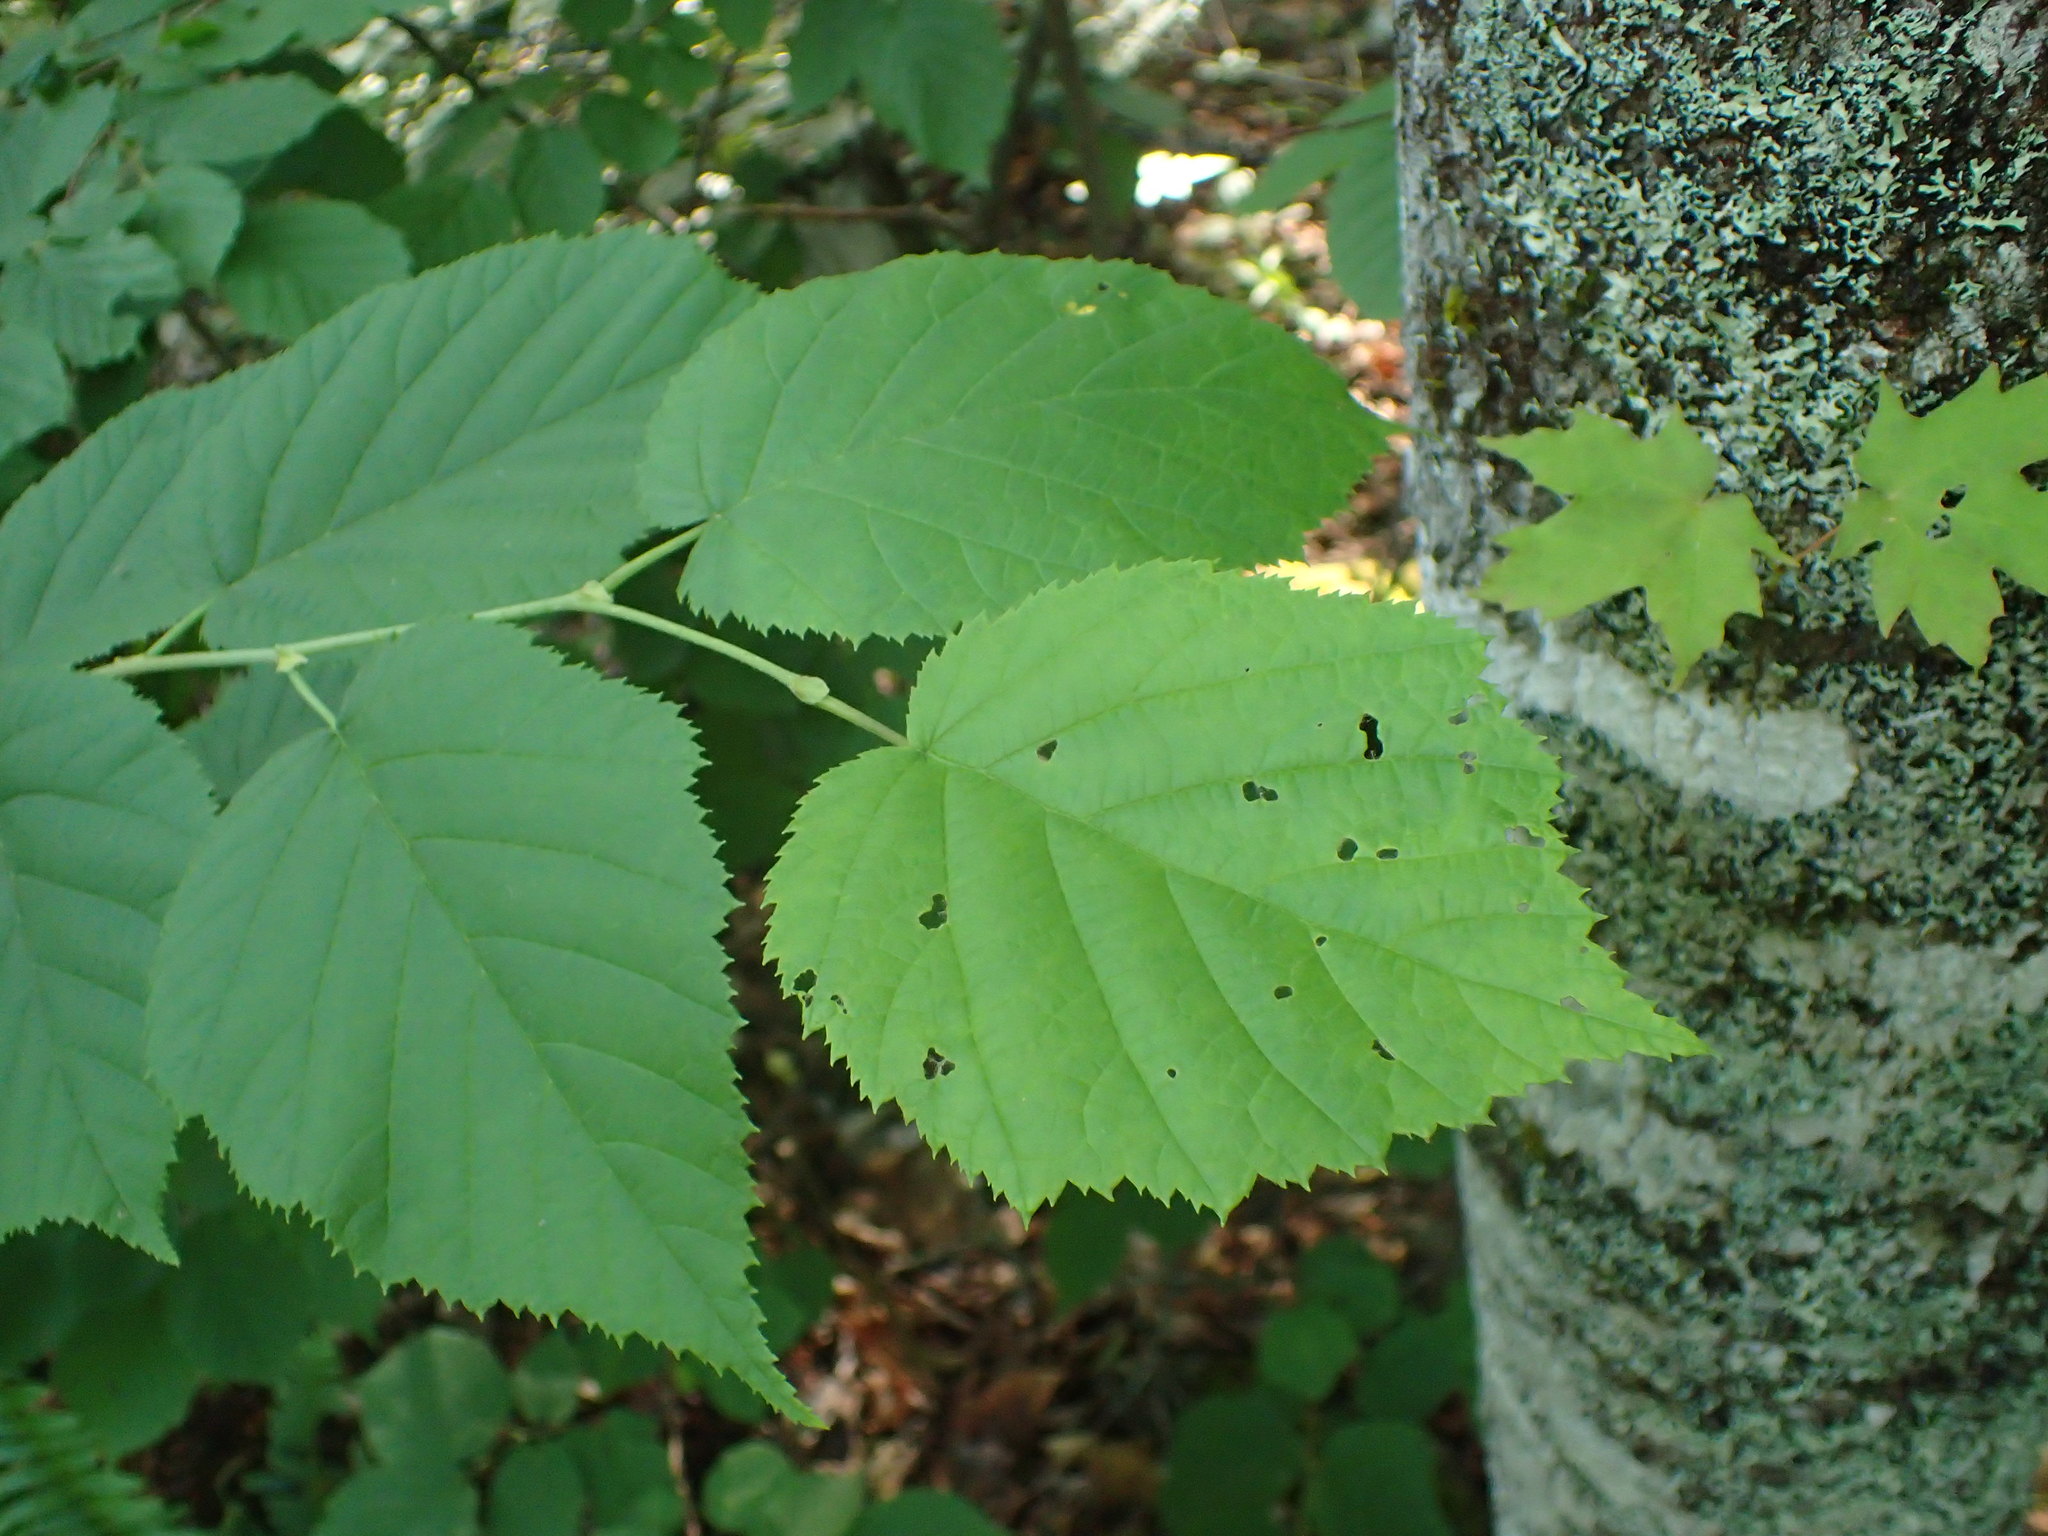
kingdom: Plantae
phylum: Tracheophyta
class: Magnoliopsida
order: Fagales
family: Betulaceae
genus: Corylus
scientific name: Corylus cornuta
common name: Beaked hazel
